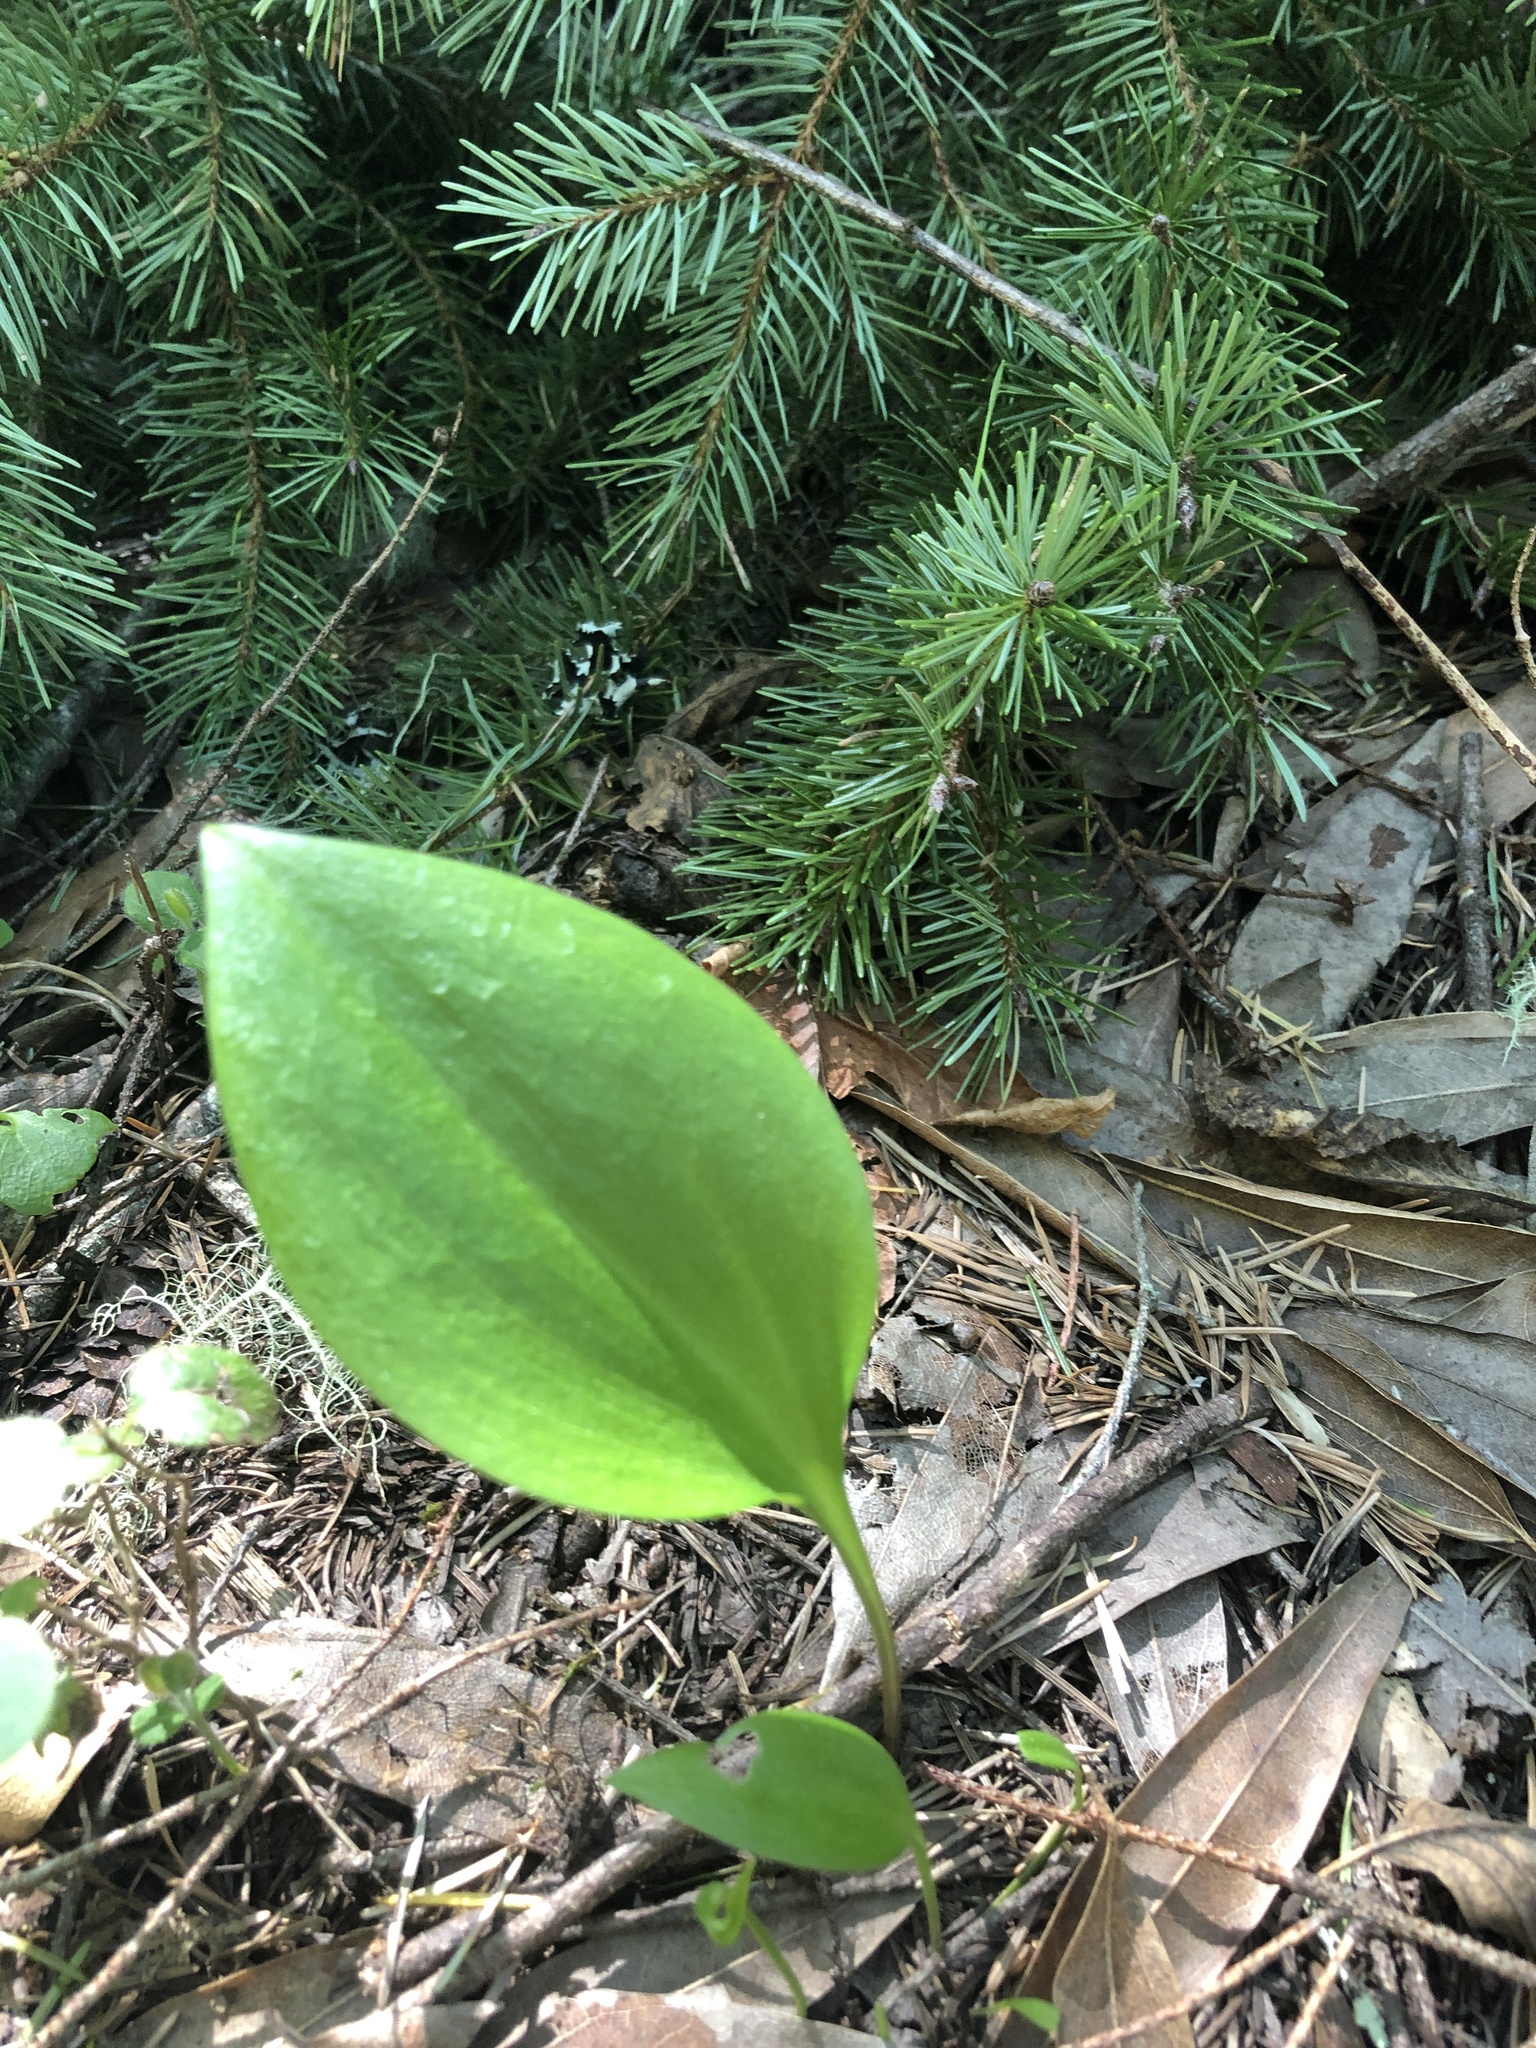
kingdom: Plantae
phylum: Tracheophyta
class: Liliopsida
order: Liliales
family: Liliaceae
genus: Fritillaria
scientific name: Fritillaria affinis
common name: Ojai fritillary
